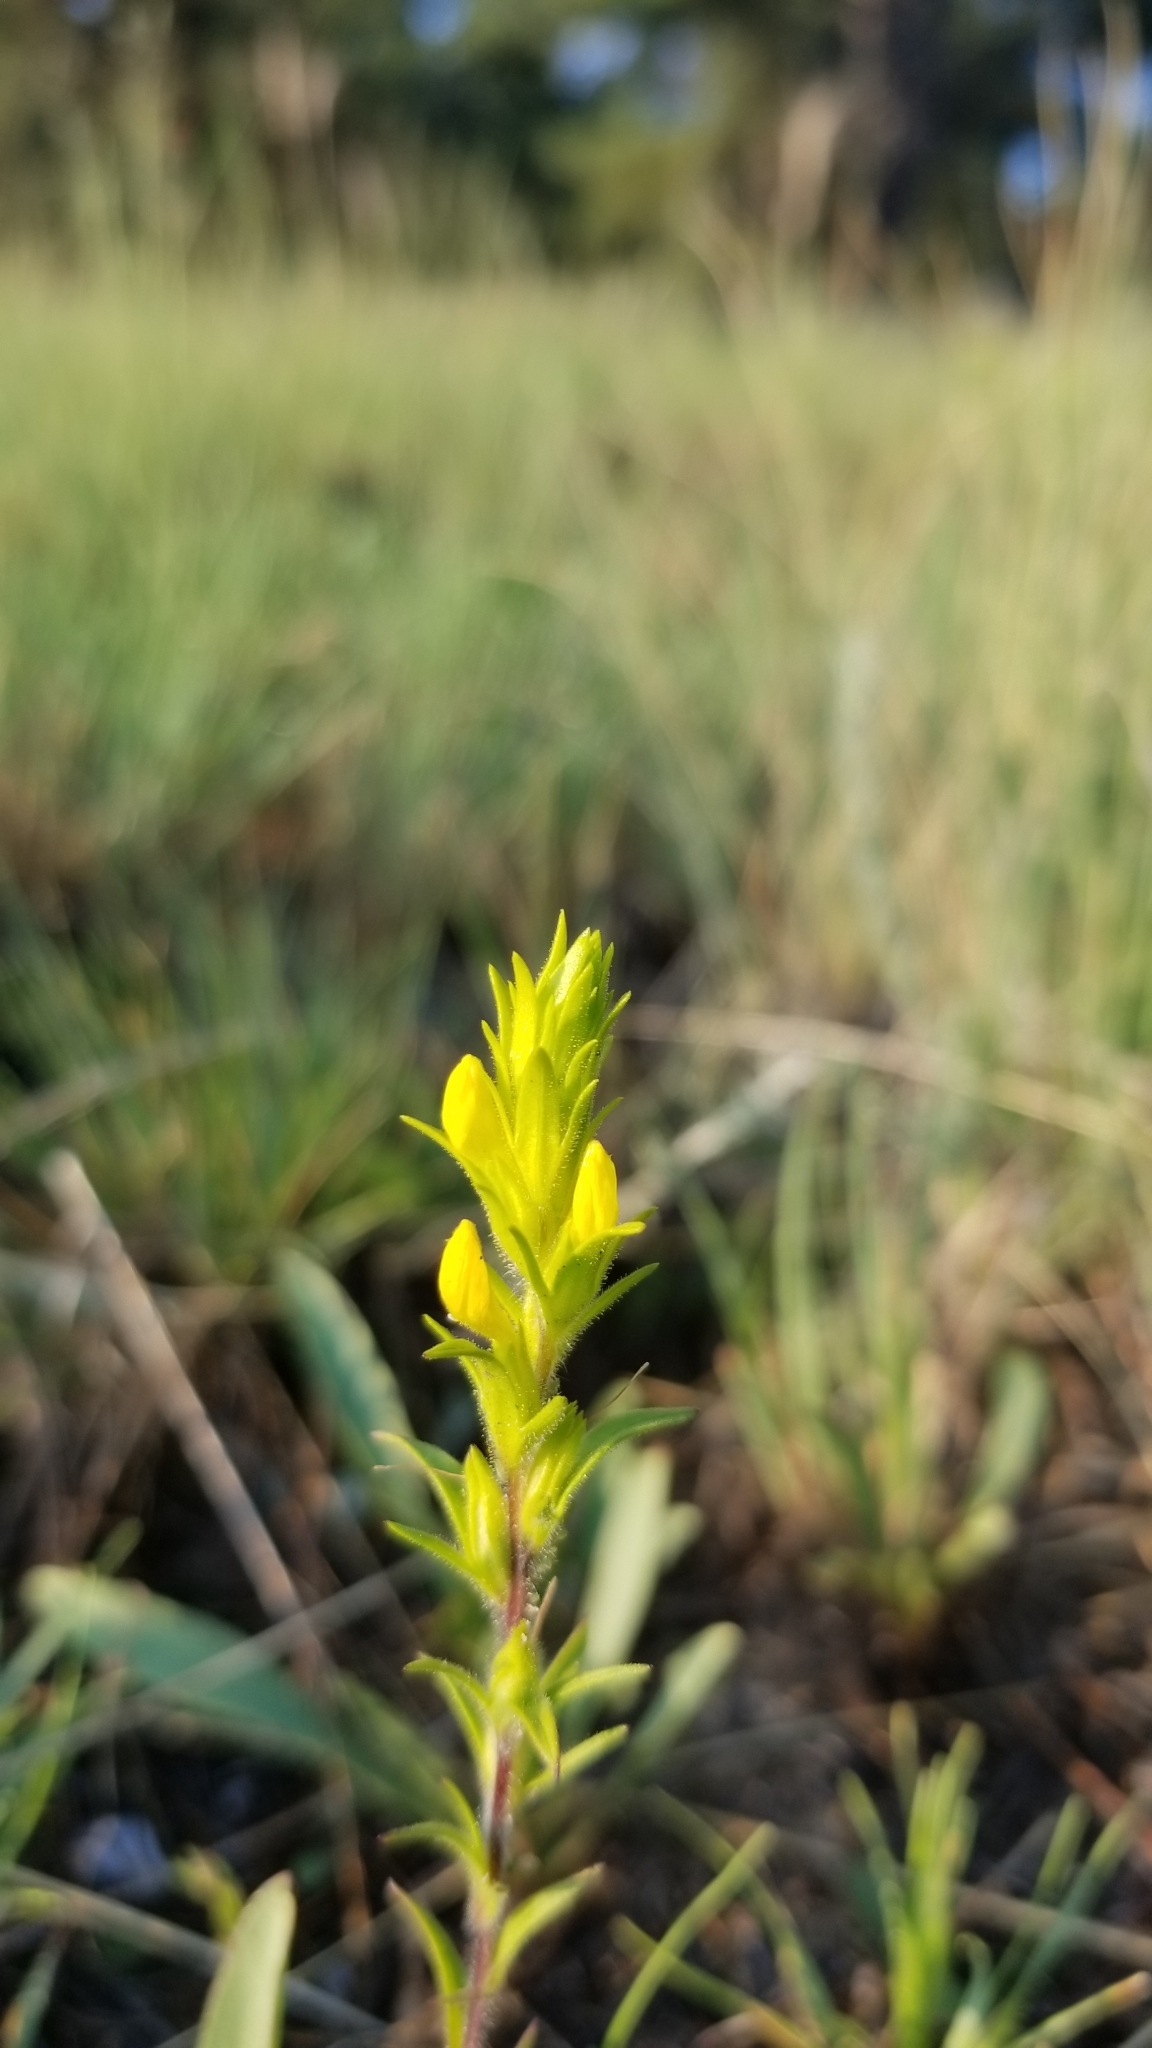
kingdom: Plantae
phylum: Tracheophyta
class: Magnoliopsida
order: Lamiales
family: Orobanchaceae
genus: Orthocarpus
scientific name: Orthocarpus luteus
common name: Golden-tongue owl's-clover
